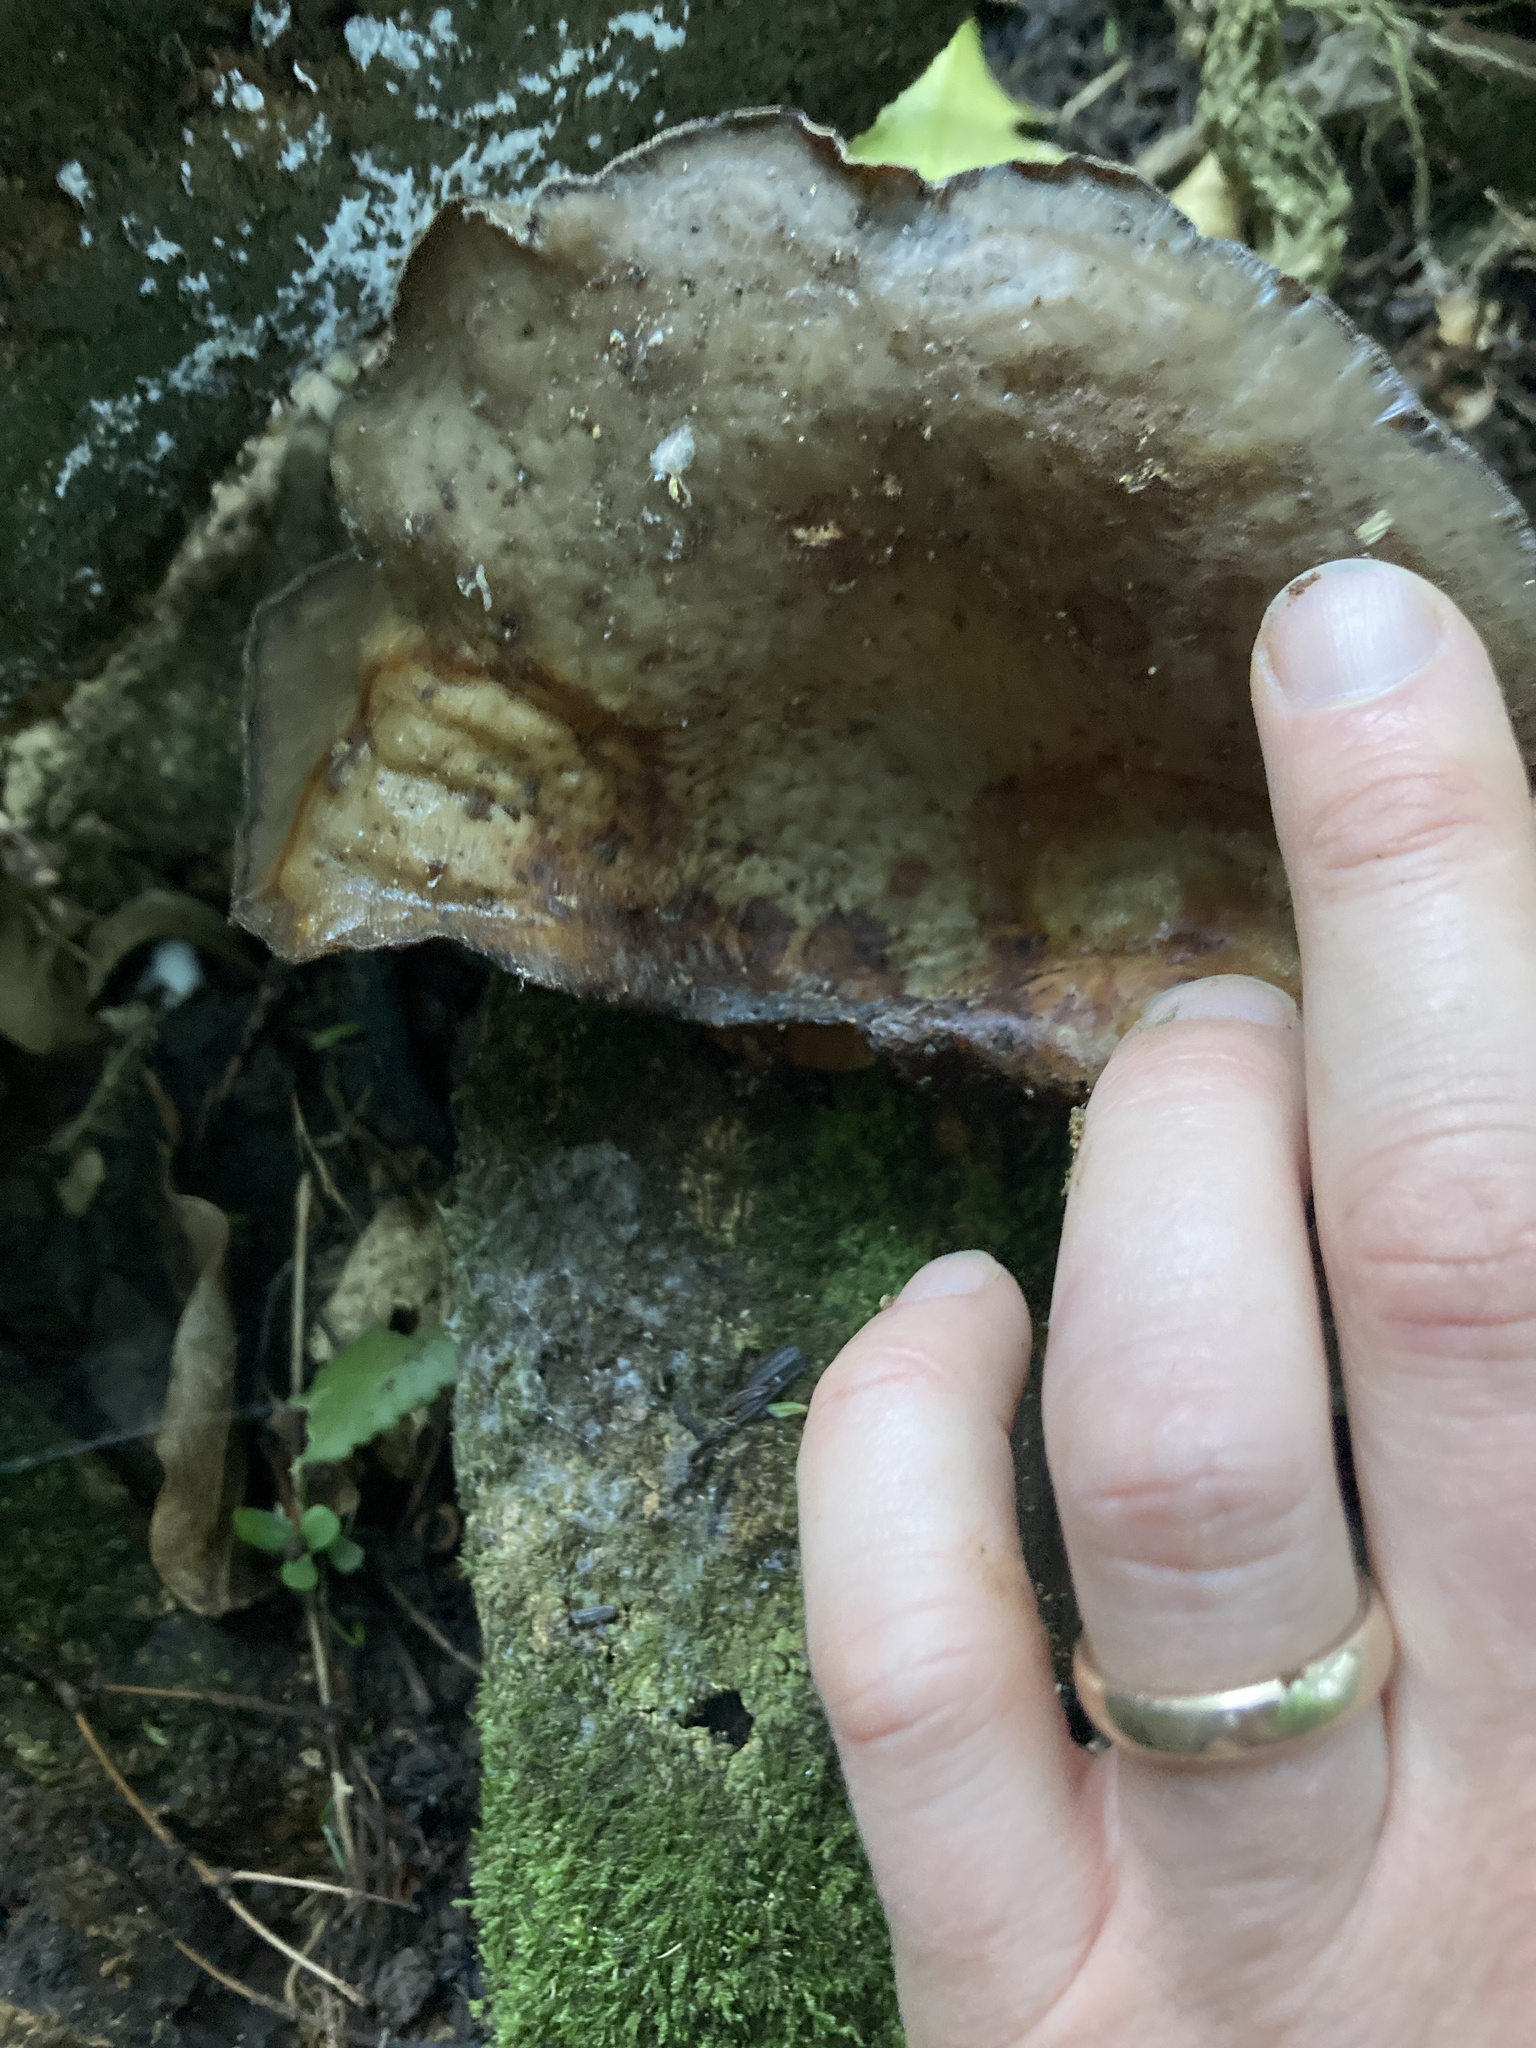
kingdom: Fungi
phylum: Basidiomycota
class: Agaricomycetes
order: Auriculariales
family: Auriculariaceae
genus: Auricularia
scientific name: Auricularia cornea
